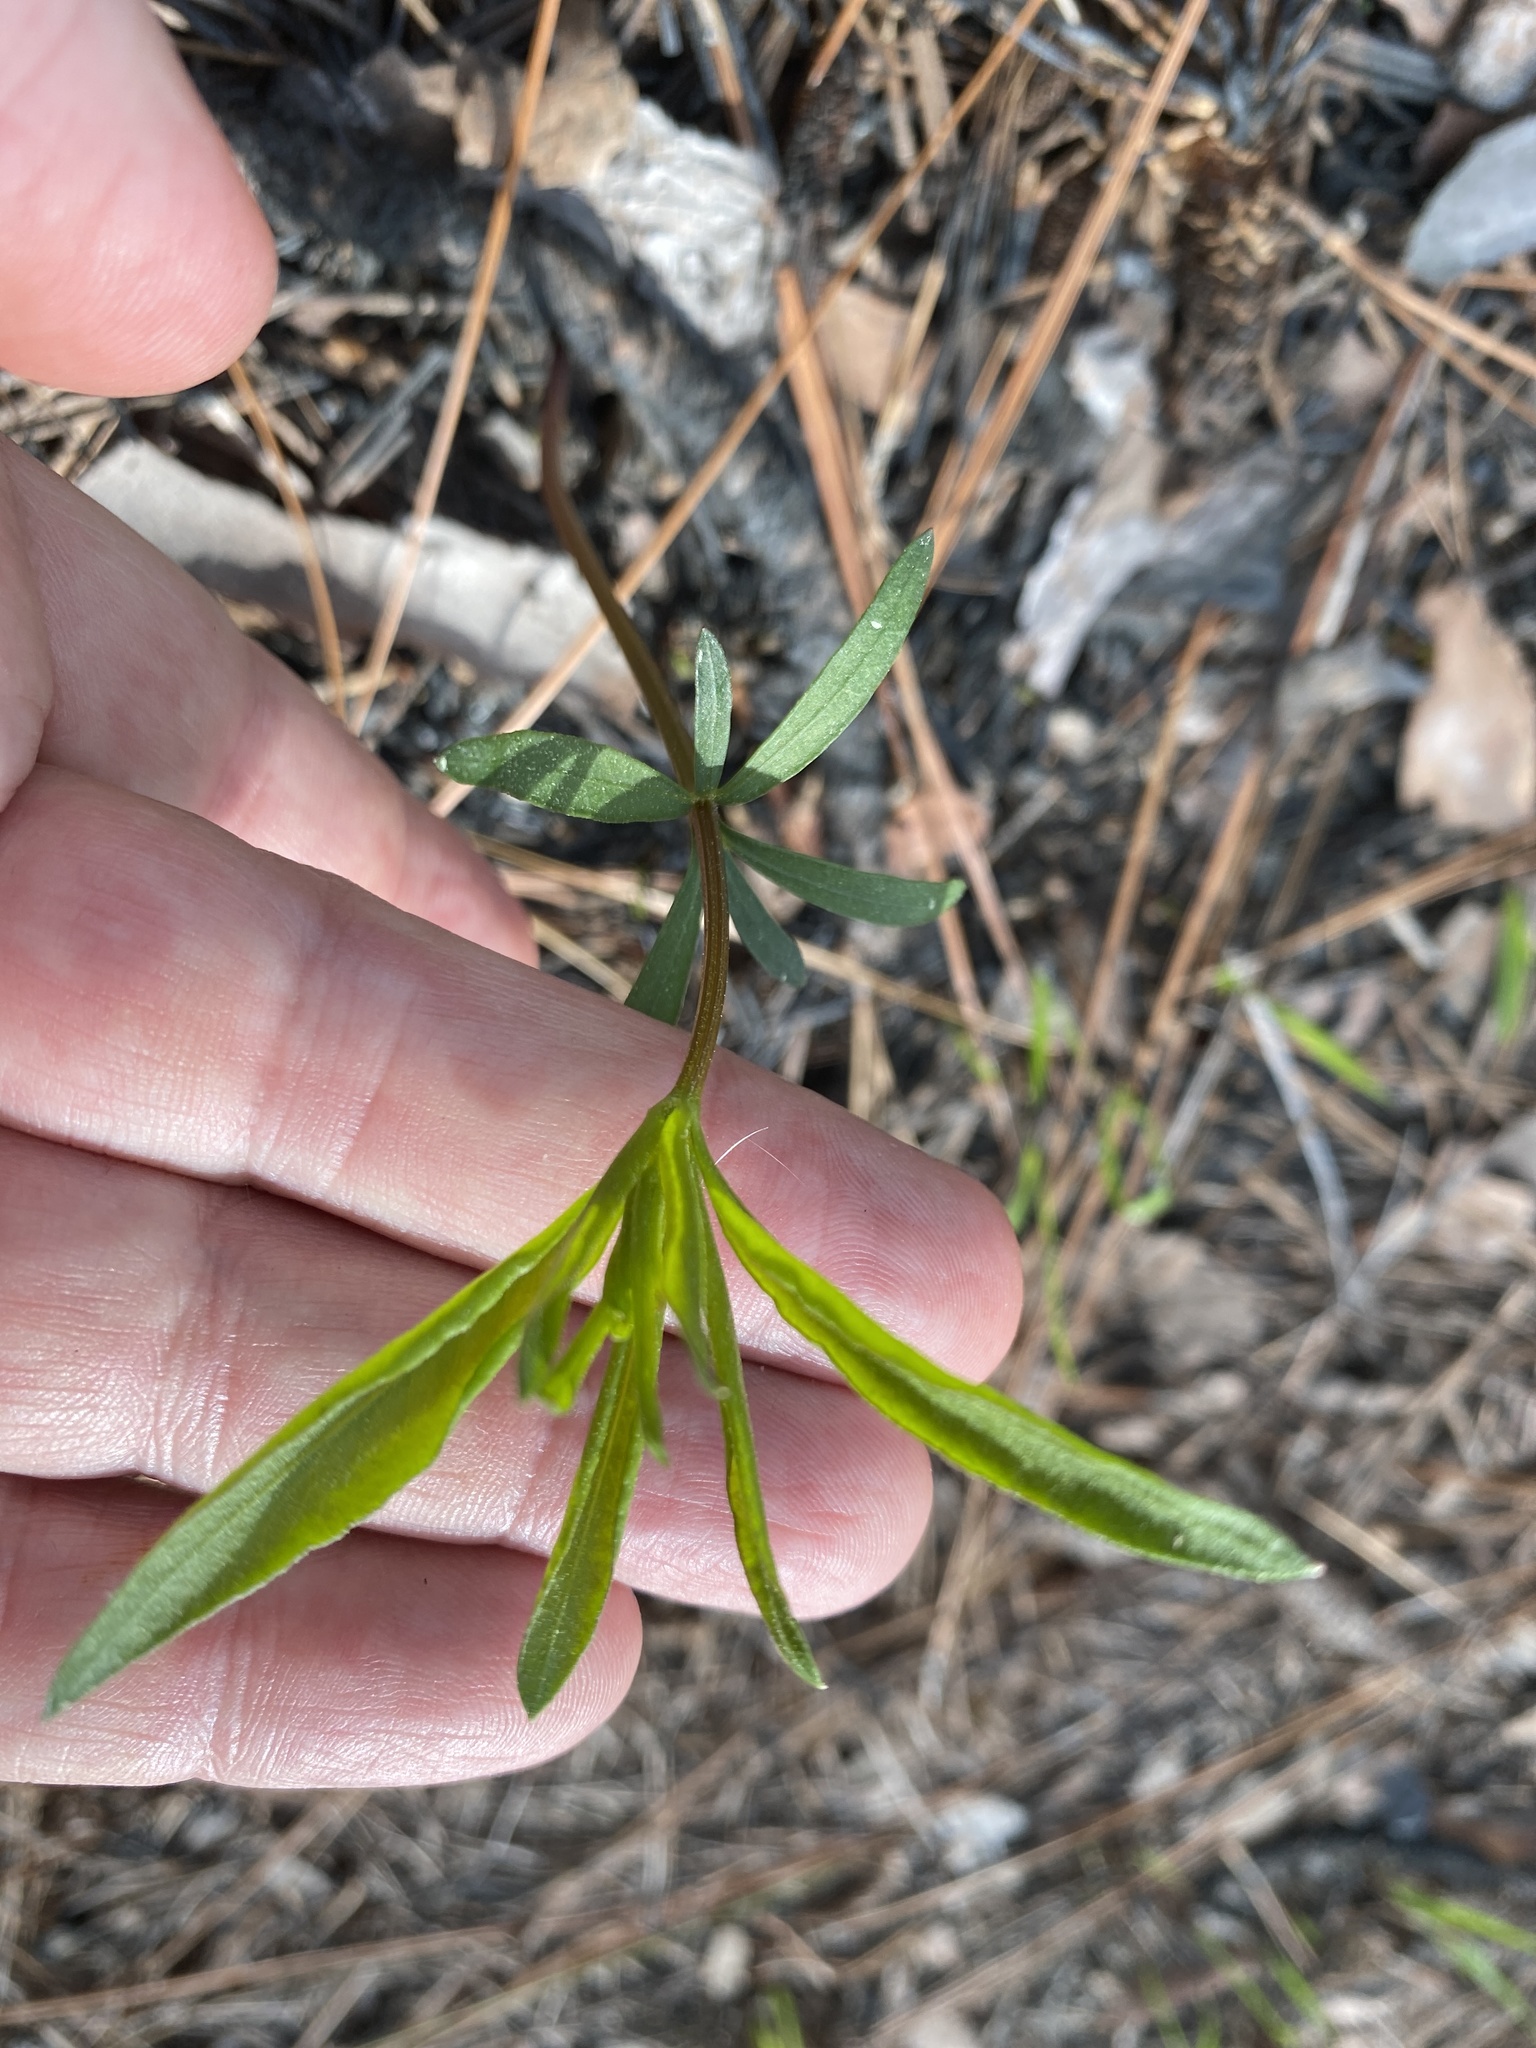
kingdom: Plantae
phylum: Tracheophyta
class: Magnoliopsida
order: Asterales
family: Asteraceae
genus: Coreopsis
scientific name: Coreopsis major
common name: Forest tickseed
